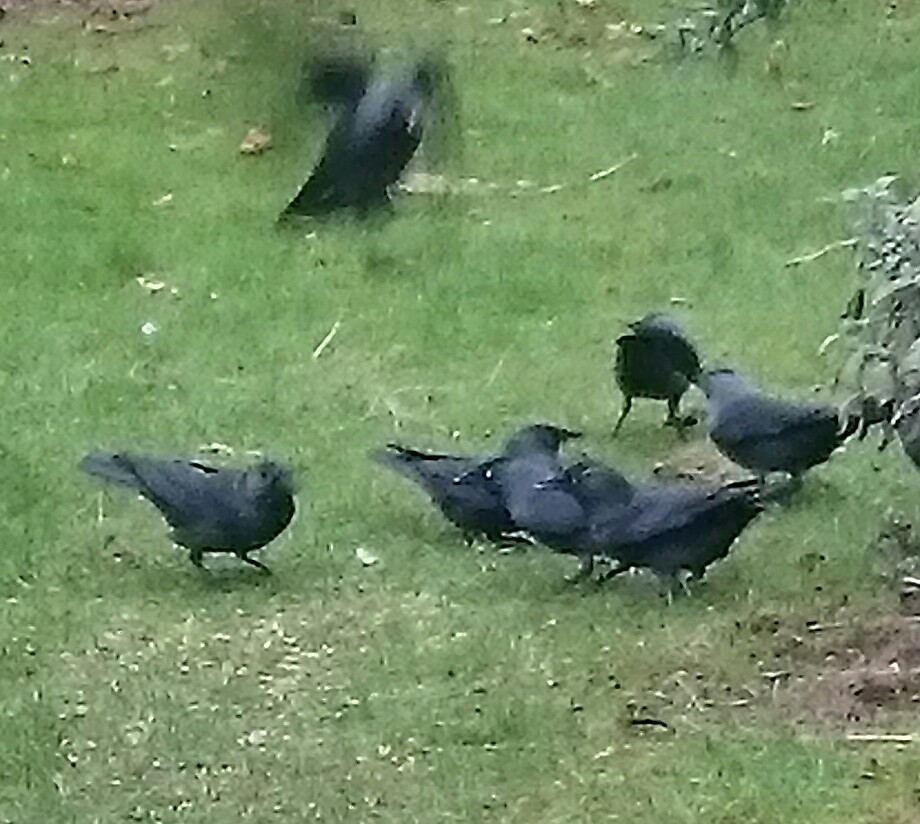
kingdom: Animalia
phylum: Chordata
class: Aves
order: Passeriformes
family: Corvidae
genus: Coloeus
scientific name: Coloeus monedula
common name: Western jackdaw
